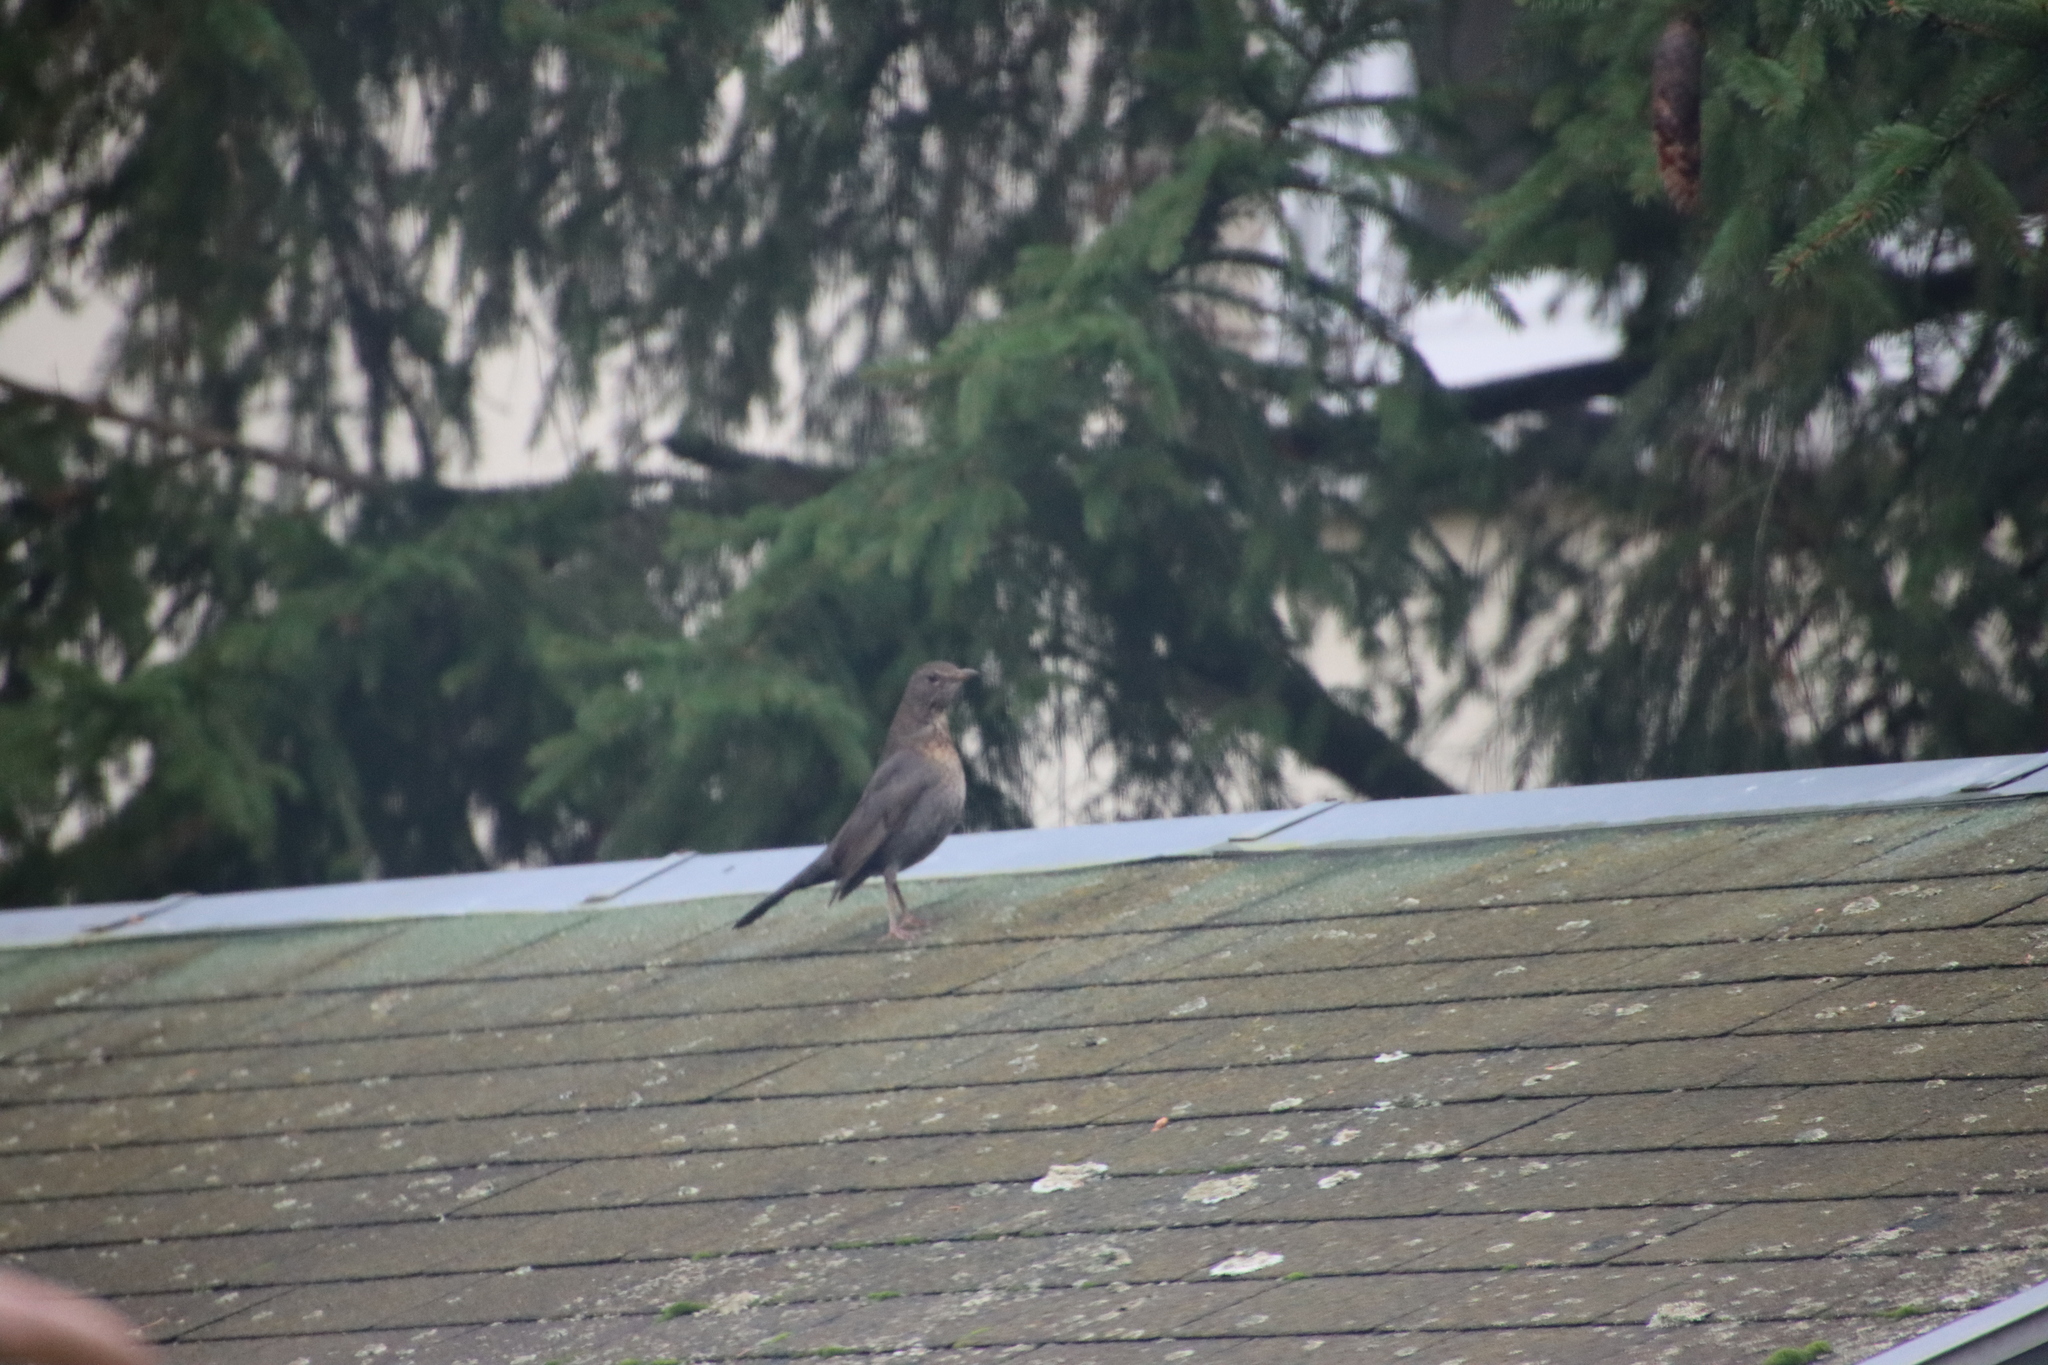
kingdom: Animalia
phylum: Chordata
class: Aves
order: Passeriformes
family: Turdidae
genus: Turdus
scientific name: Turdus merula
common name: Common blackbird
